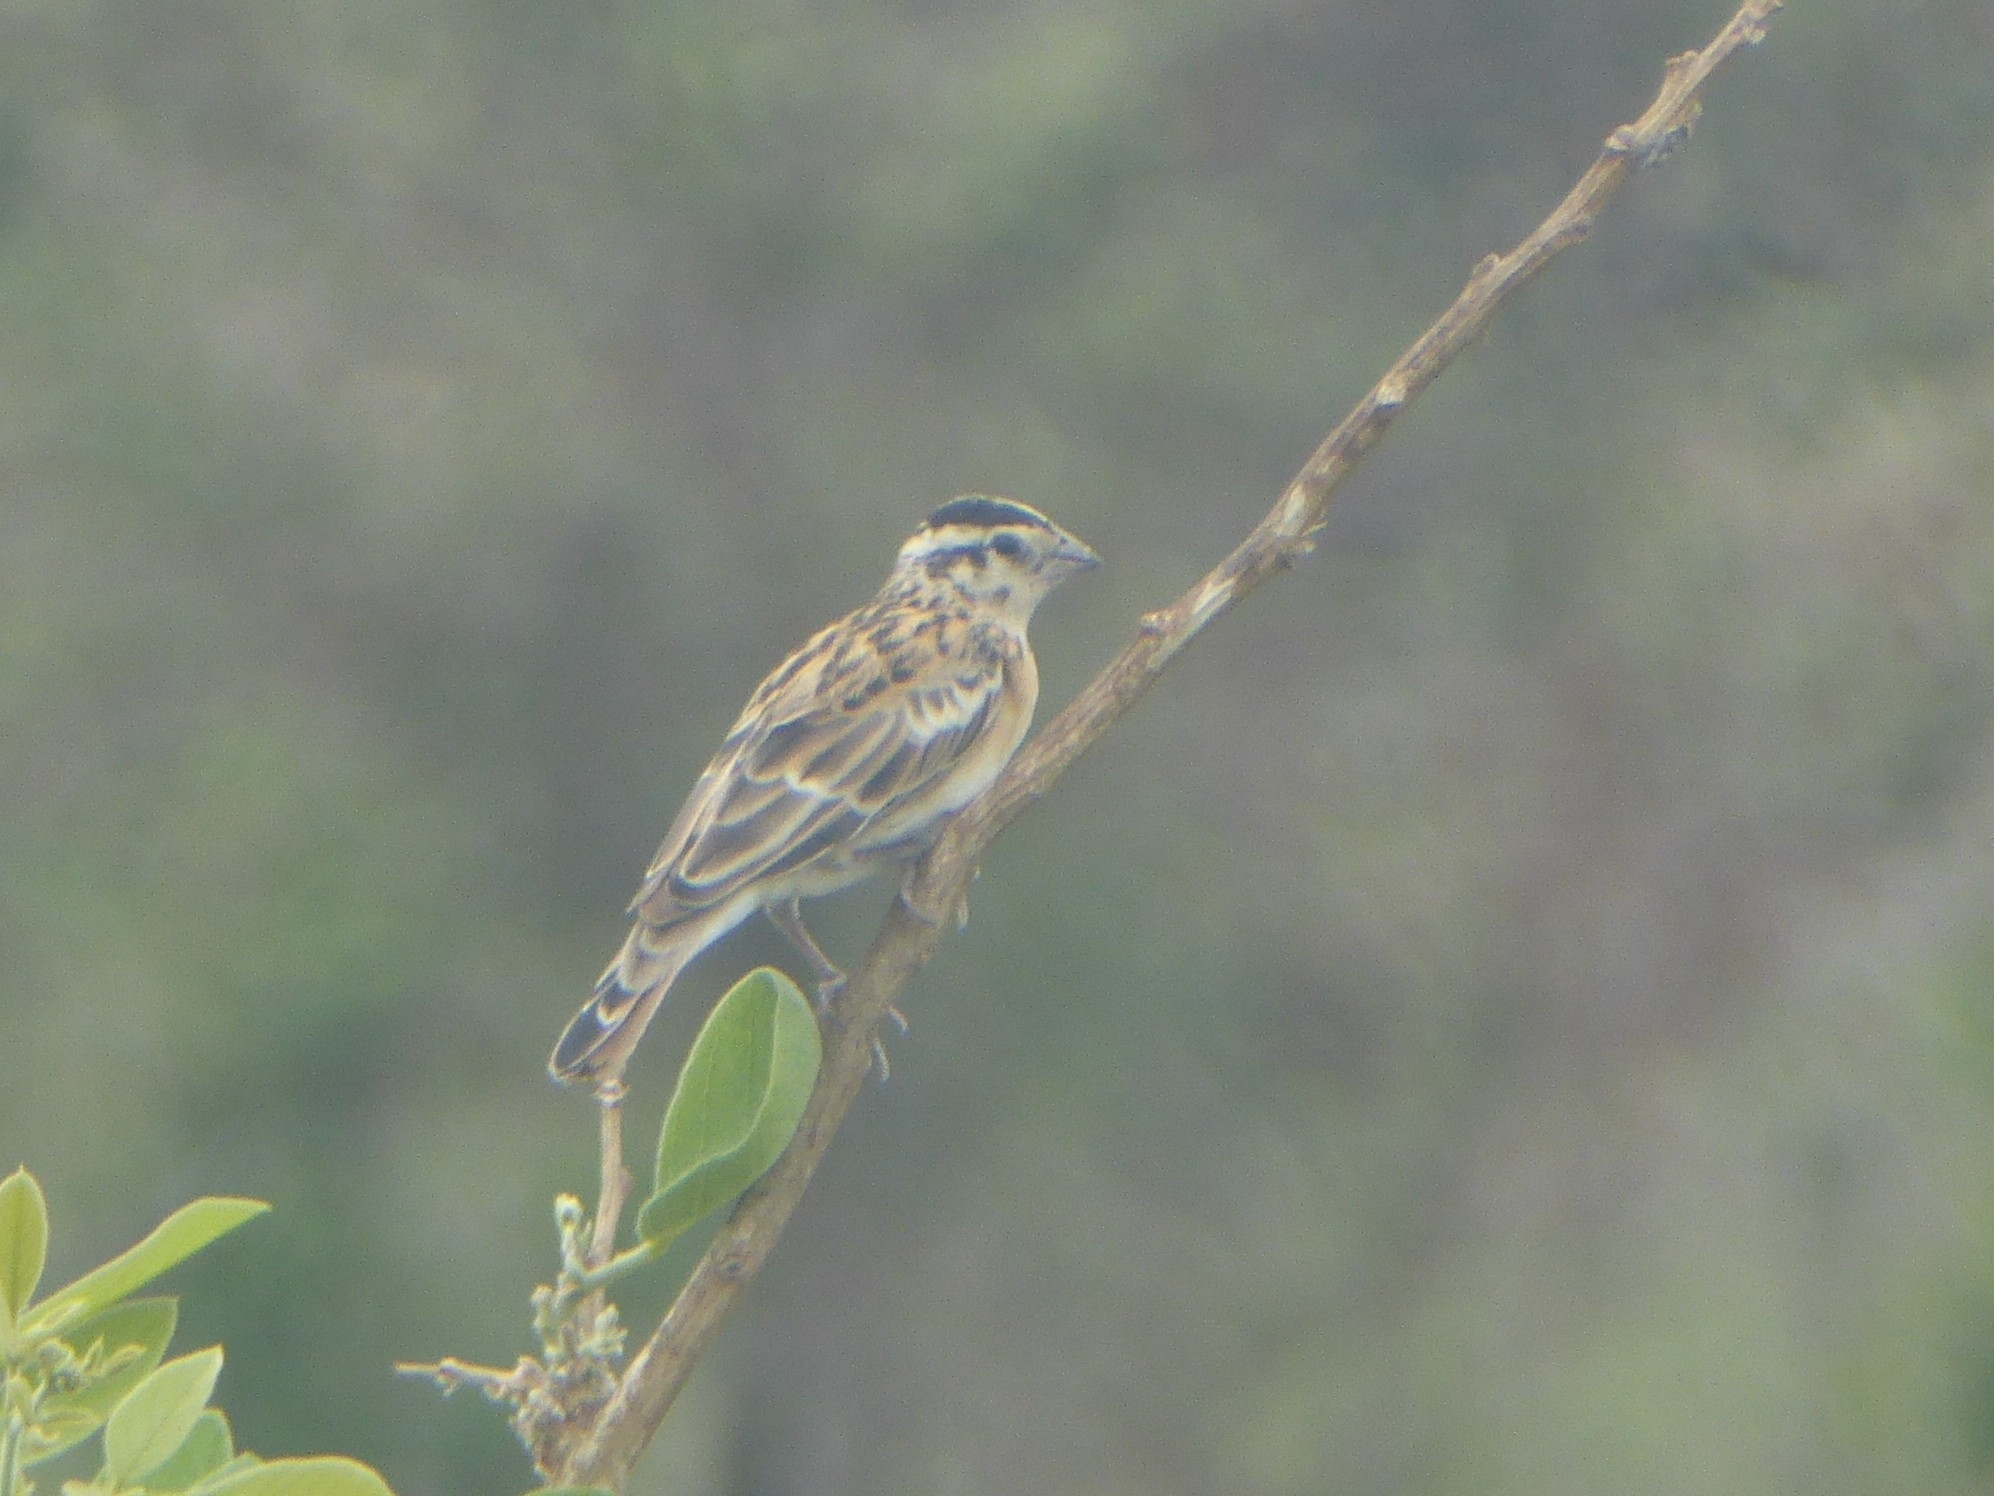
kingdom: Animalia
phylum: Chordata
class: Aves
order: Passeriformes
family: Viduidae
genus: Vidua
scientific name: Vidua paradisaea
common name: Long-tailed paradise whydah
